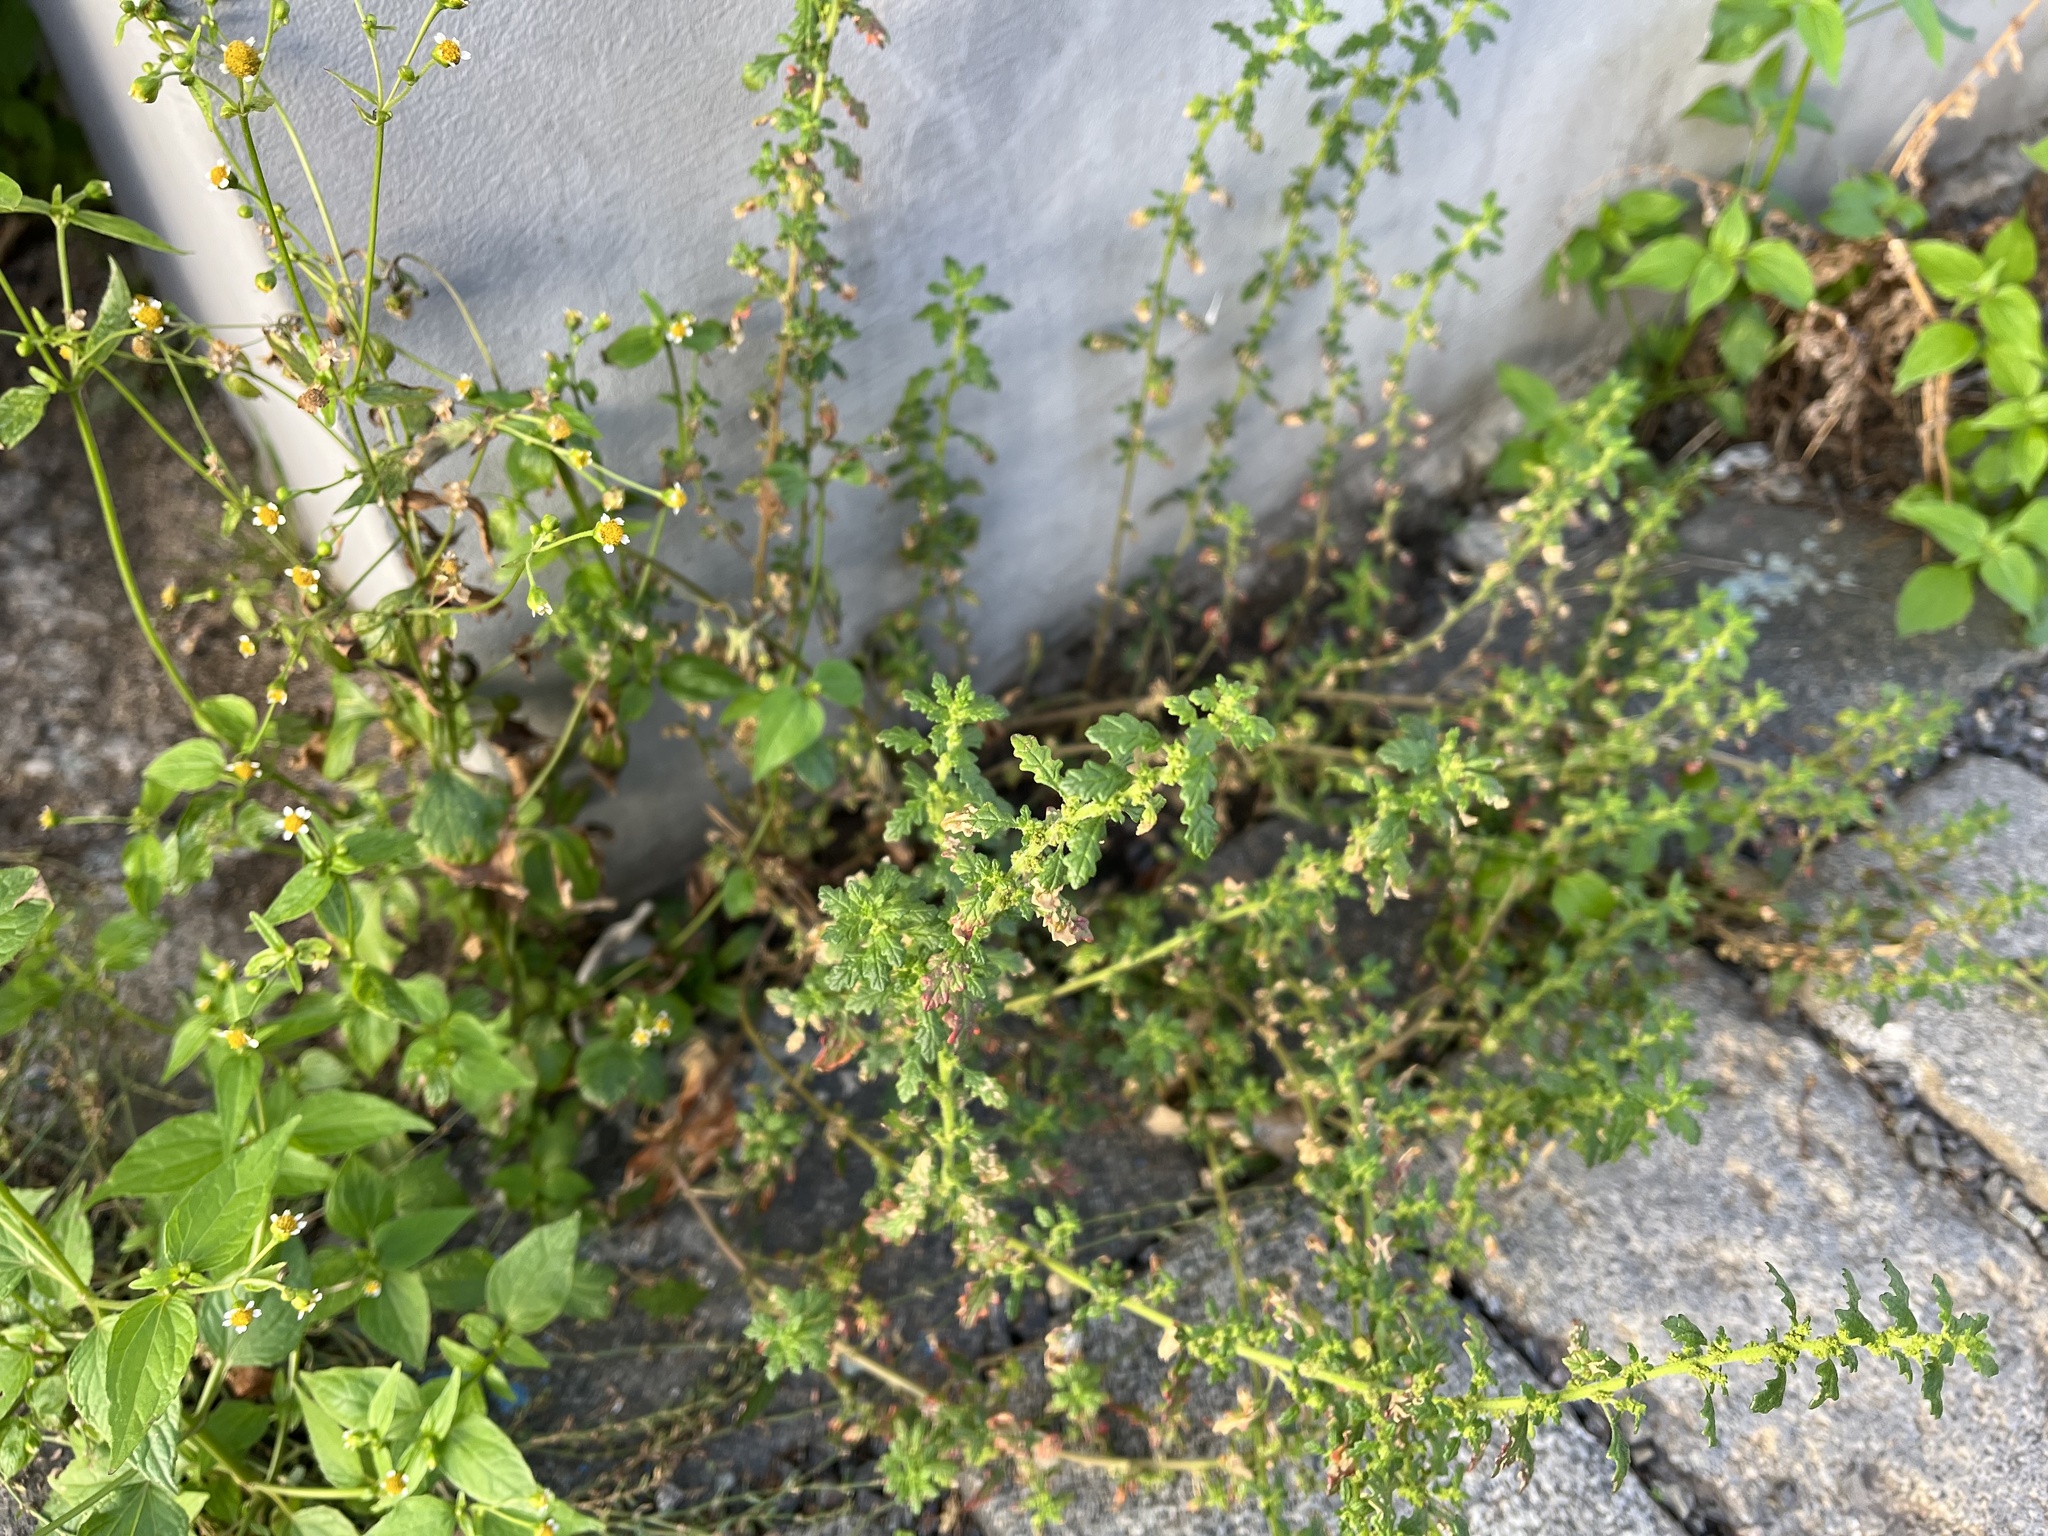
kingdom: Plantae
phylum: Tracheophyta
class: Magnoliopsida
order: Caryophyllales
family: Amaranthaceae
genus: Dysphania
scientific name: Dysphania pumilio
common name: Clammy goosefoot
